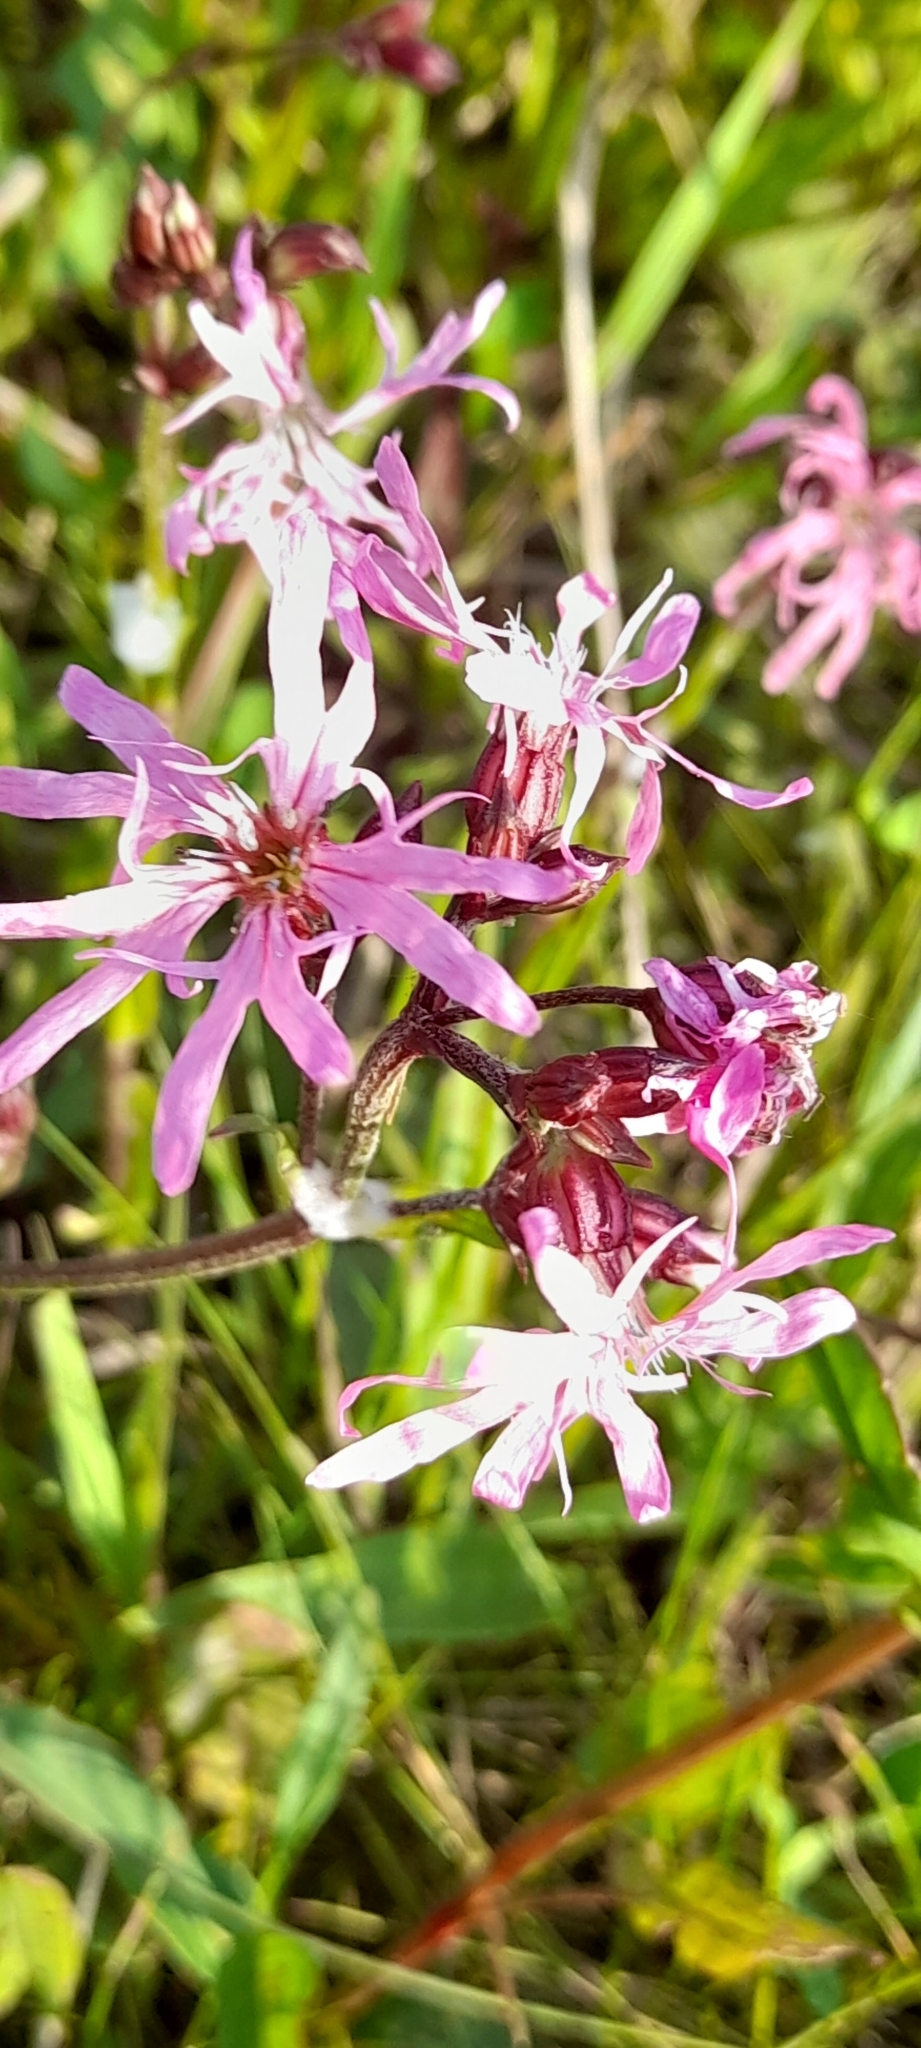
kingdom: Plantae
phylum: Tracheophyta
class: Magnoliopsida
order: Caryophyllales
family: Caryophyllaceae
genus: Silene
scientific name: Silene flos-cuculi
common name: Ragged-robin
